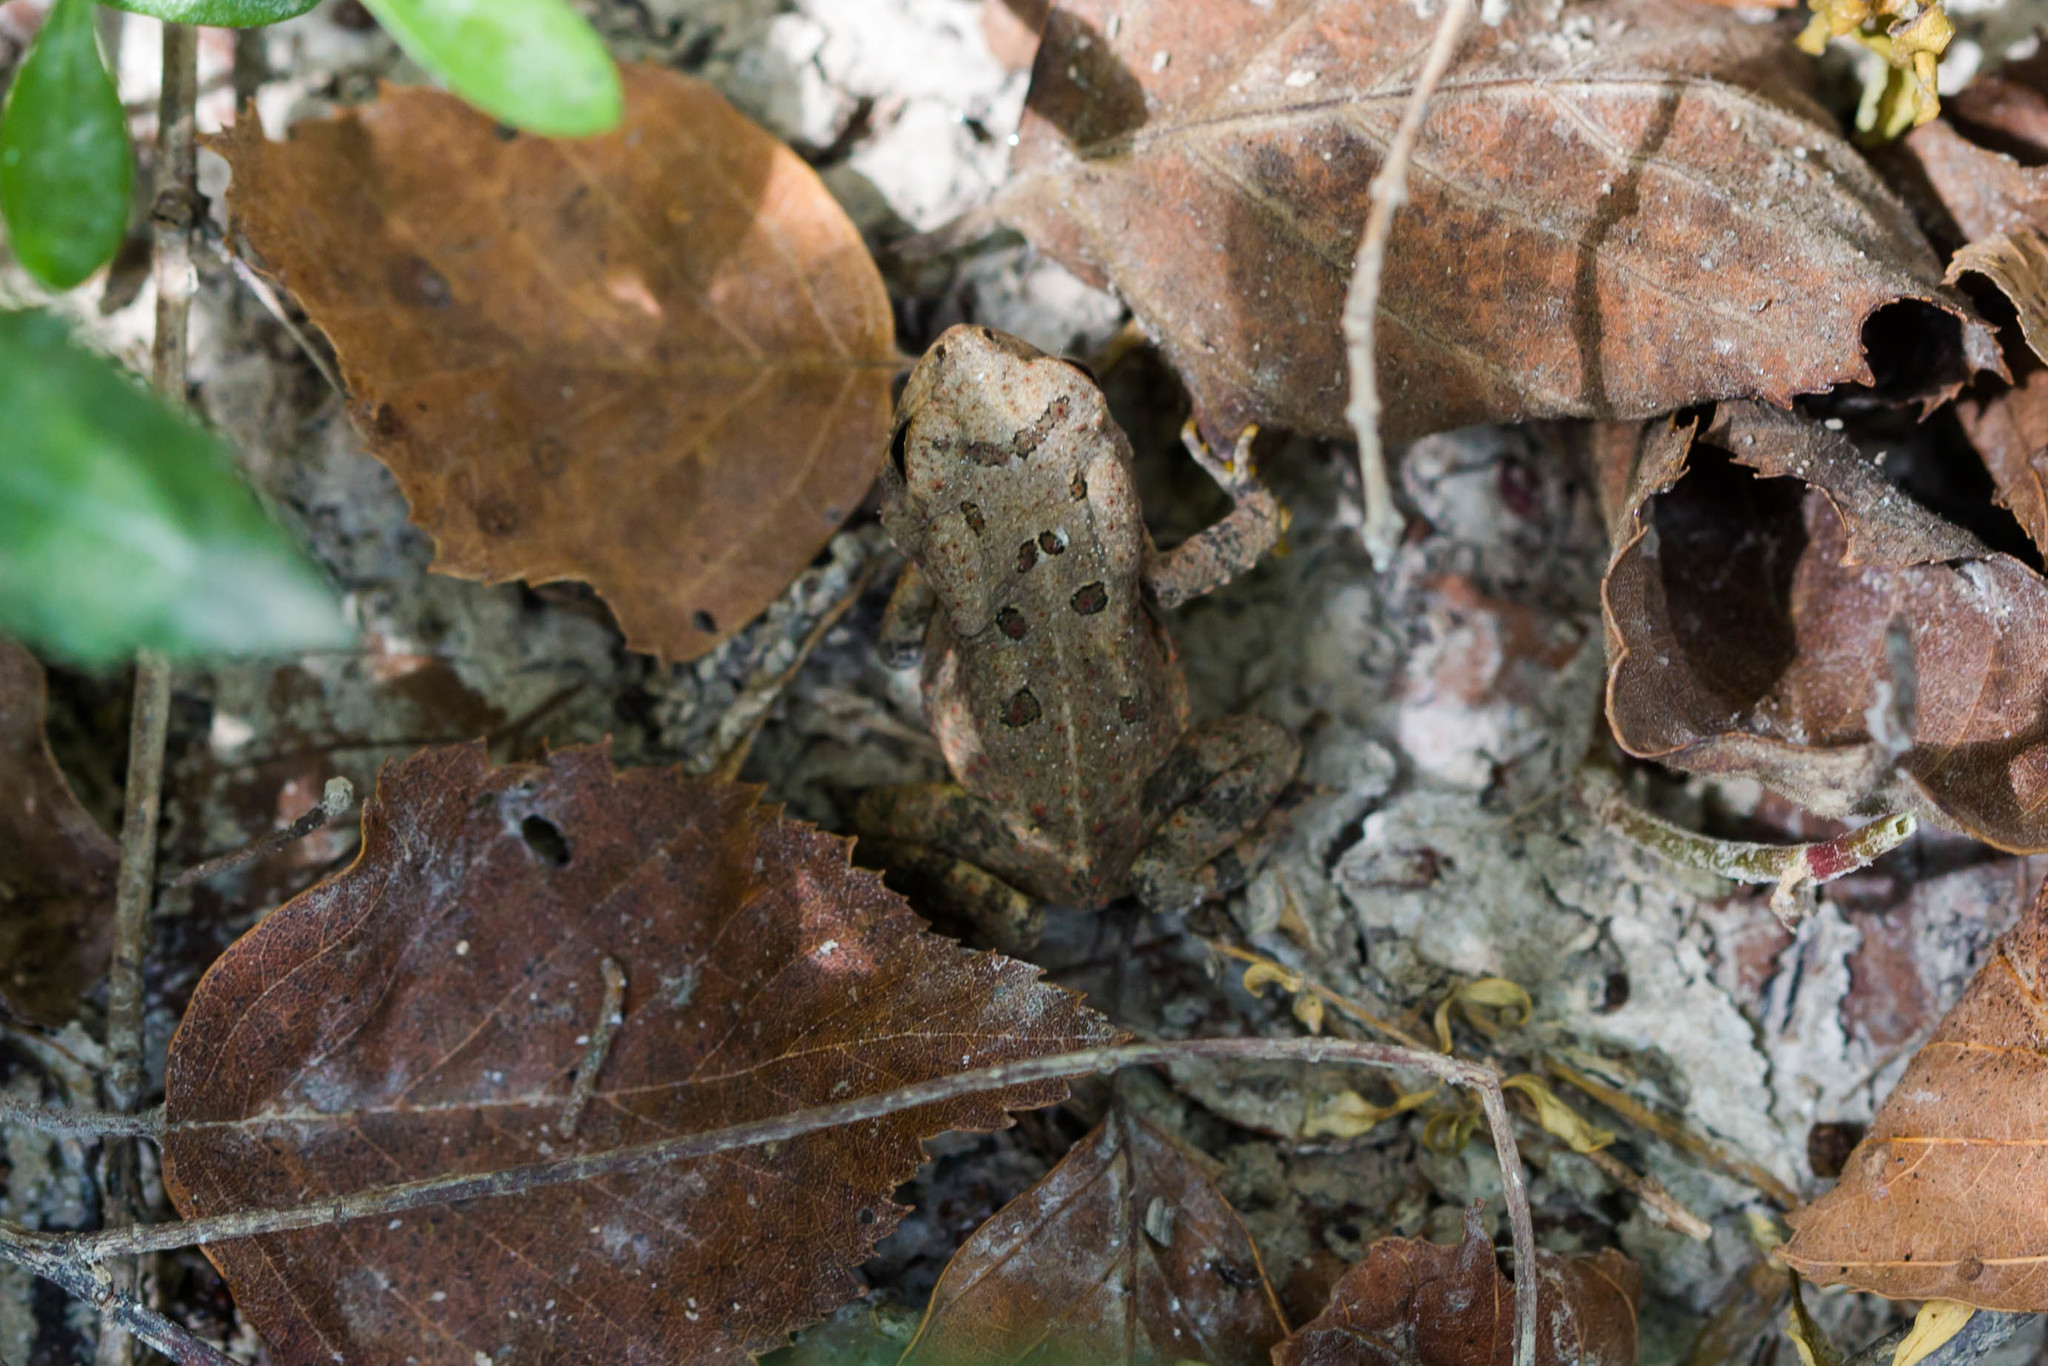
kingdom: Animalia
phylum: Chordata
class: Amphibia
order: Anura
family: Bufonidae
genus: Anaxyrus
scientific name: Anaxyrus fowleri
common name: Fowler's toad
